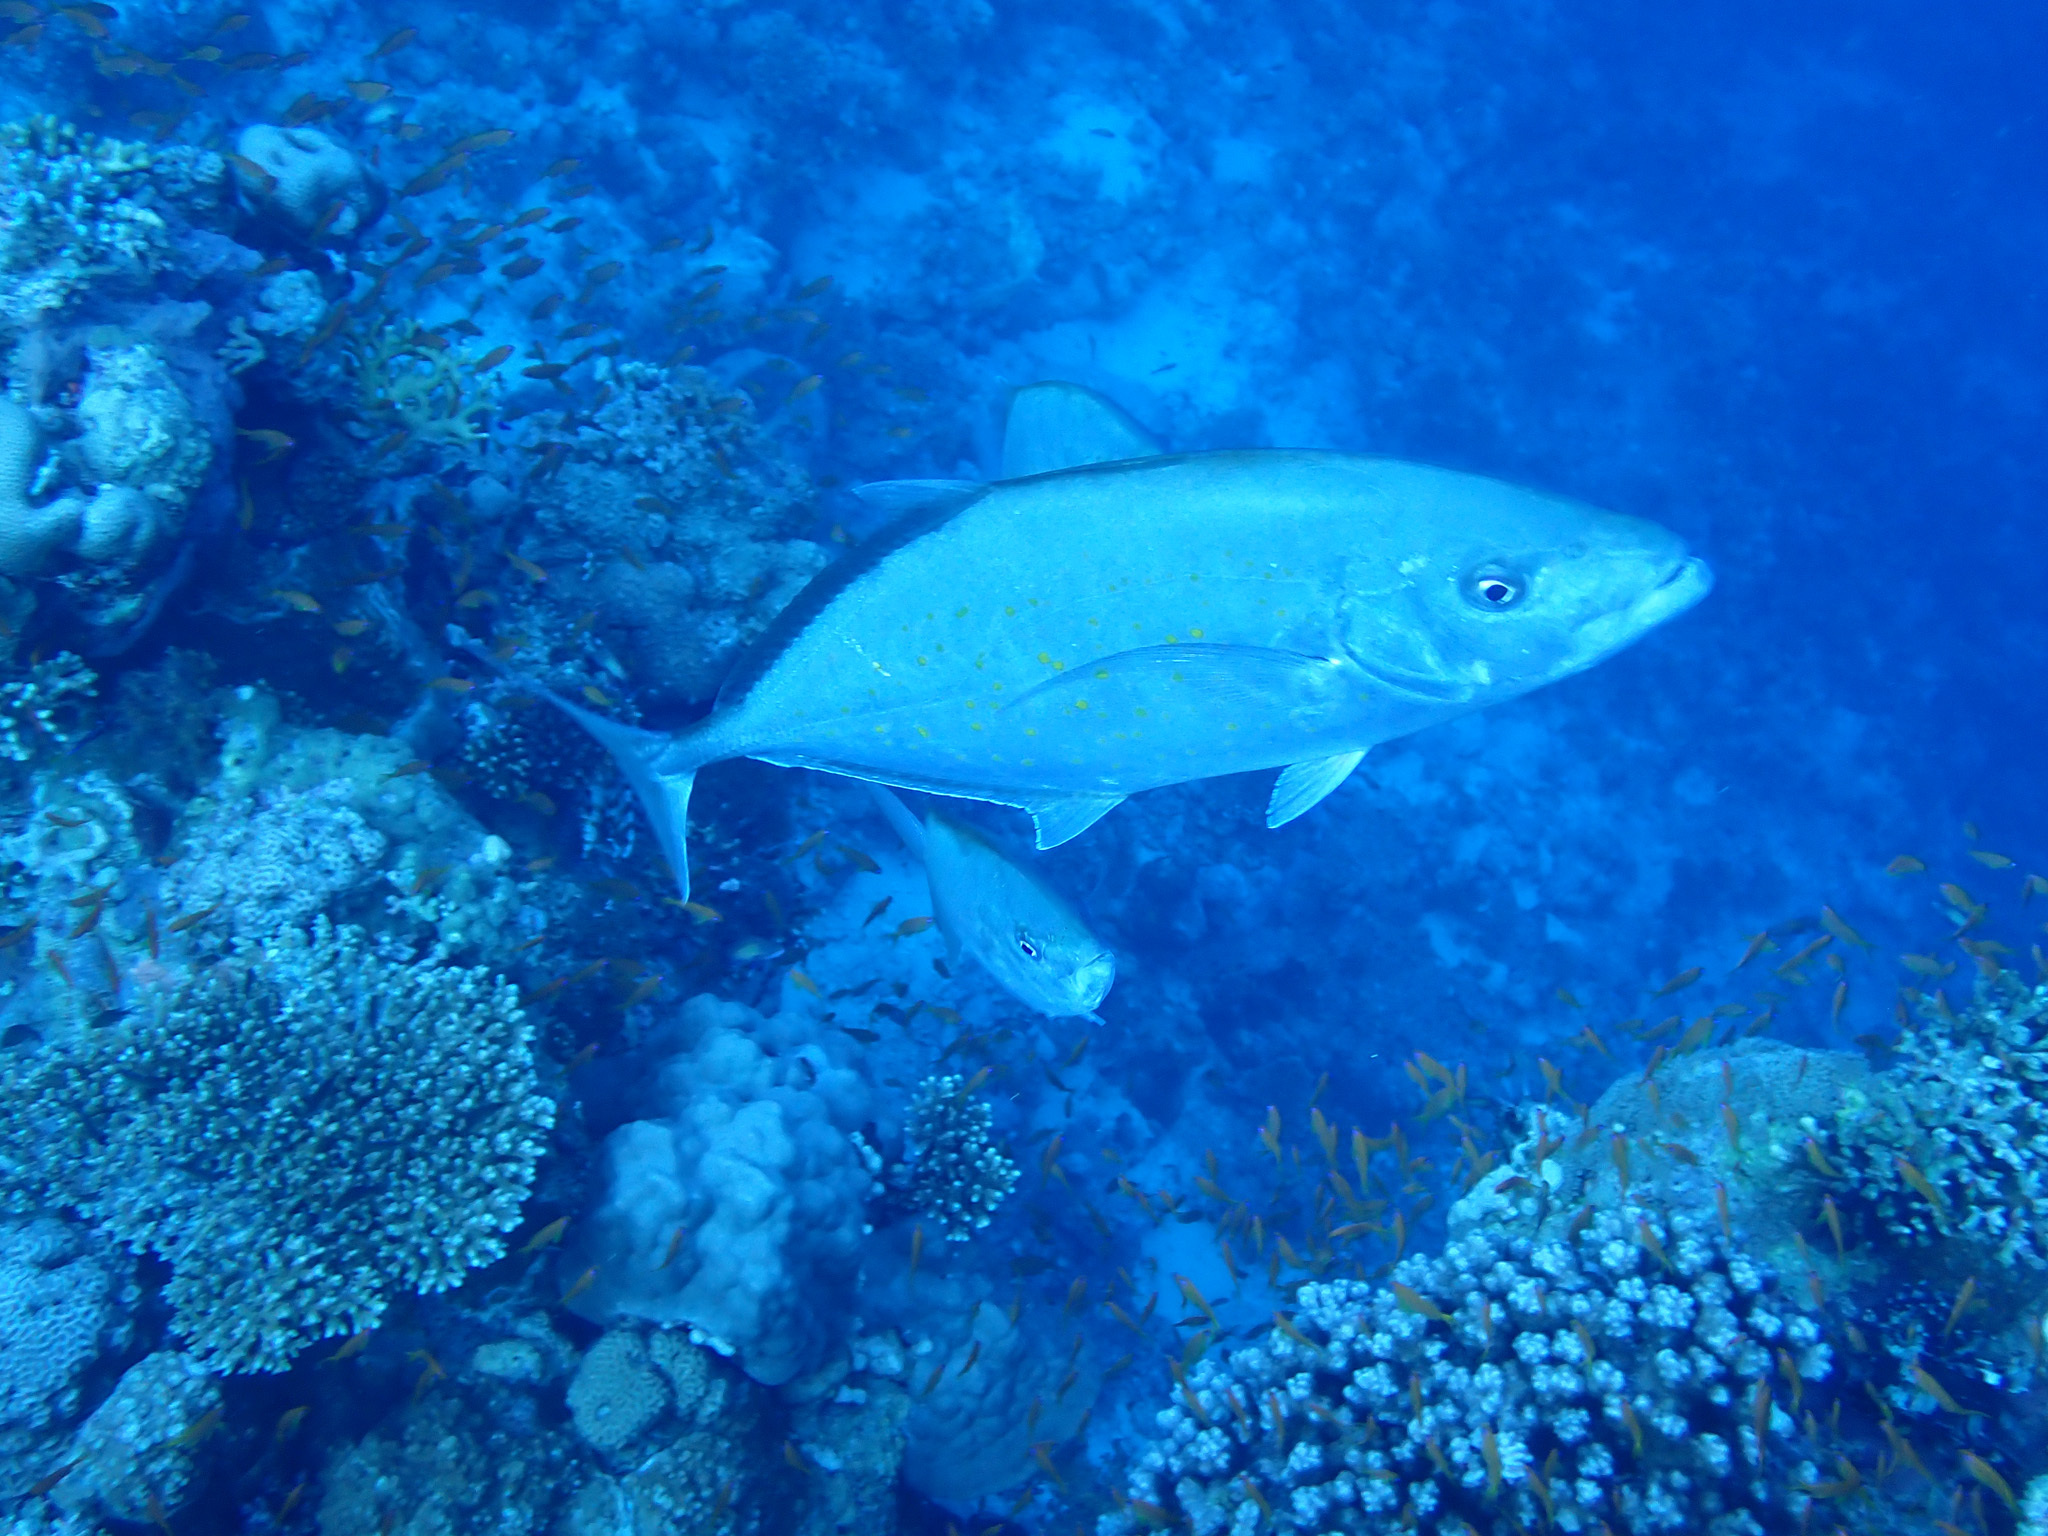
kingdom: Animalia
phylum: Chordata
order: Perciformes
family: Carangidae
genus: Flavocaranx
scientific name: Flavocaranx bajad
